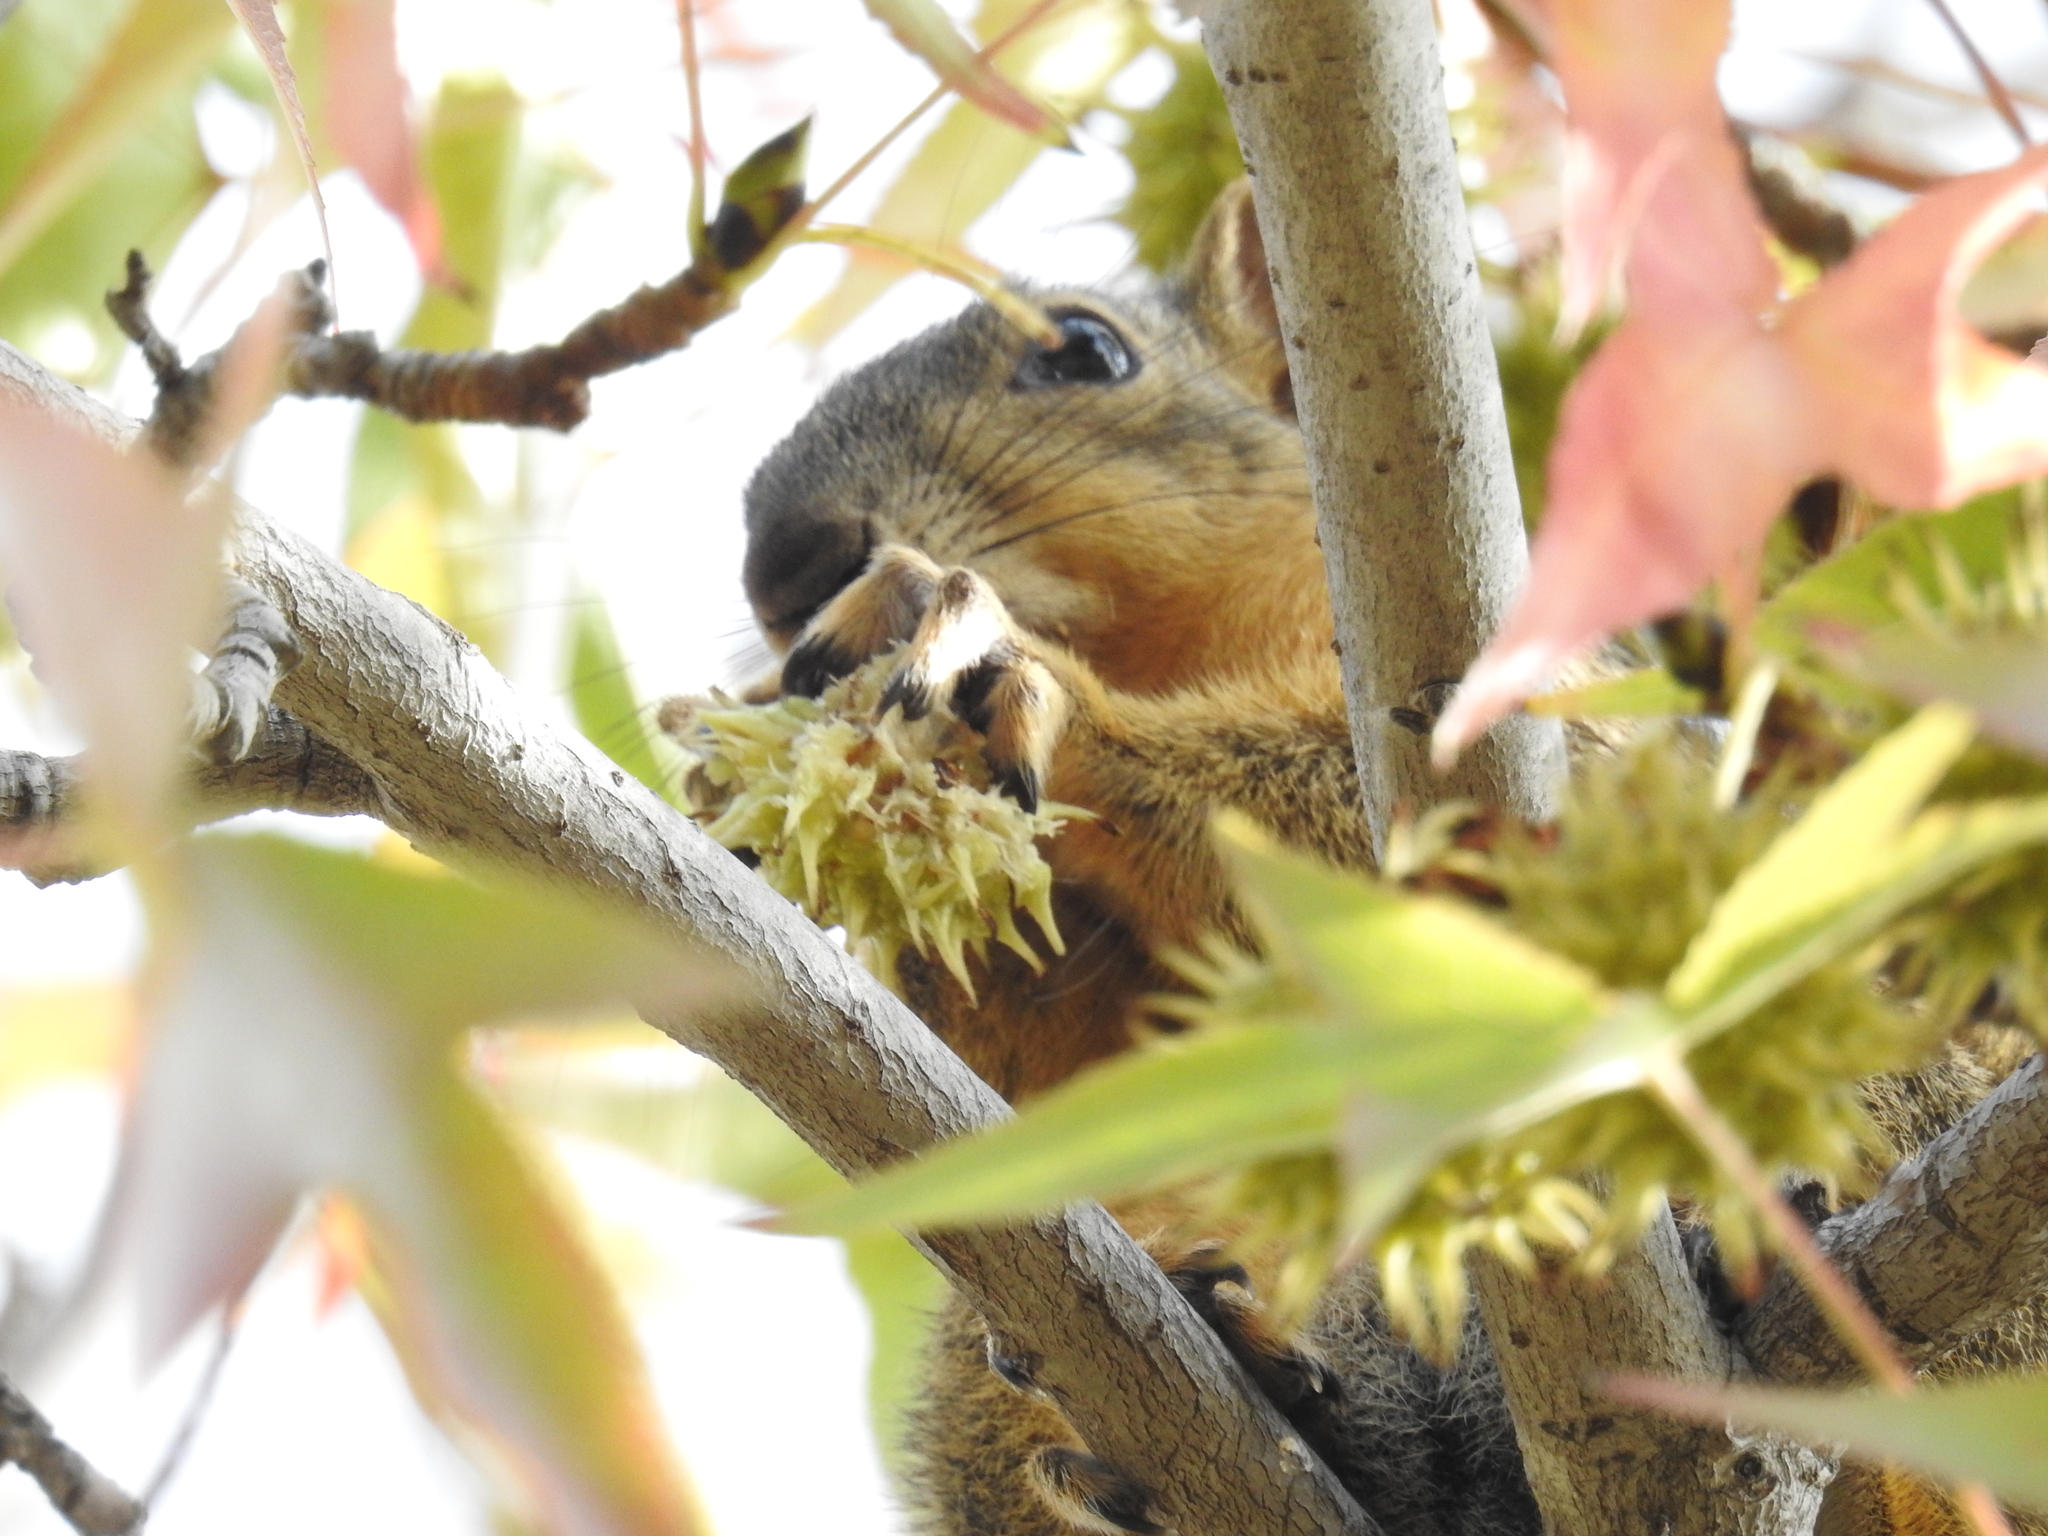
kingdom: Animalia
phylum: Chordata
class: Mammalia
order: Rodentia
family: Sciuridae
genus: Sciurus
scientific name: Sciurus niger
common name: Fox squirrel
